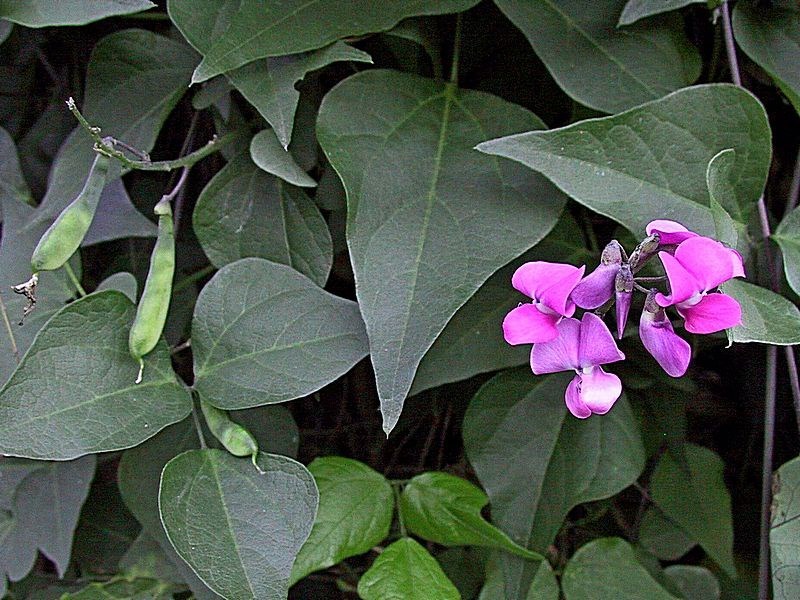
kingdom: Plantae
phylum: Tracheophyta
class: Magnoliopsida
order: Fabales
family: Fabaceae
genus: Dipogon
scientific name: Dipogon lignosus
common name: Okie bean
